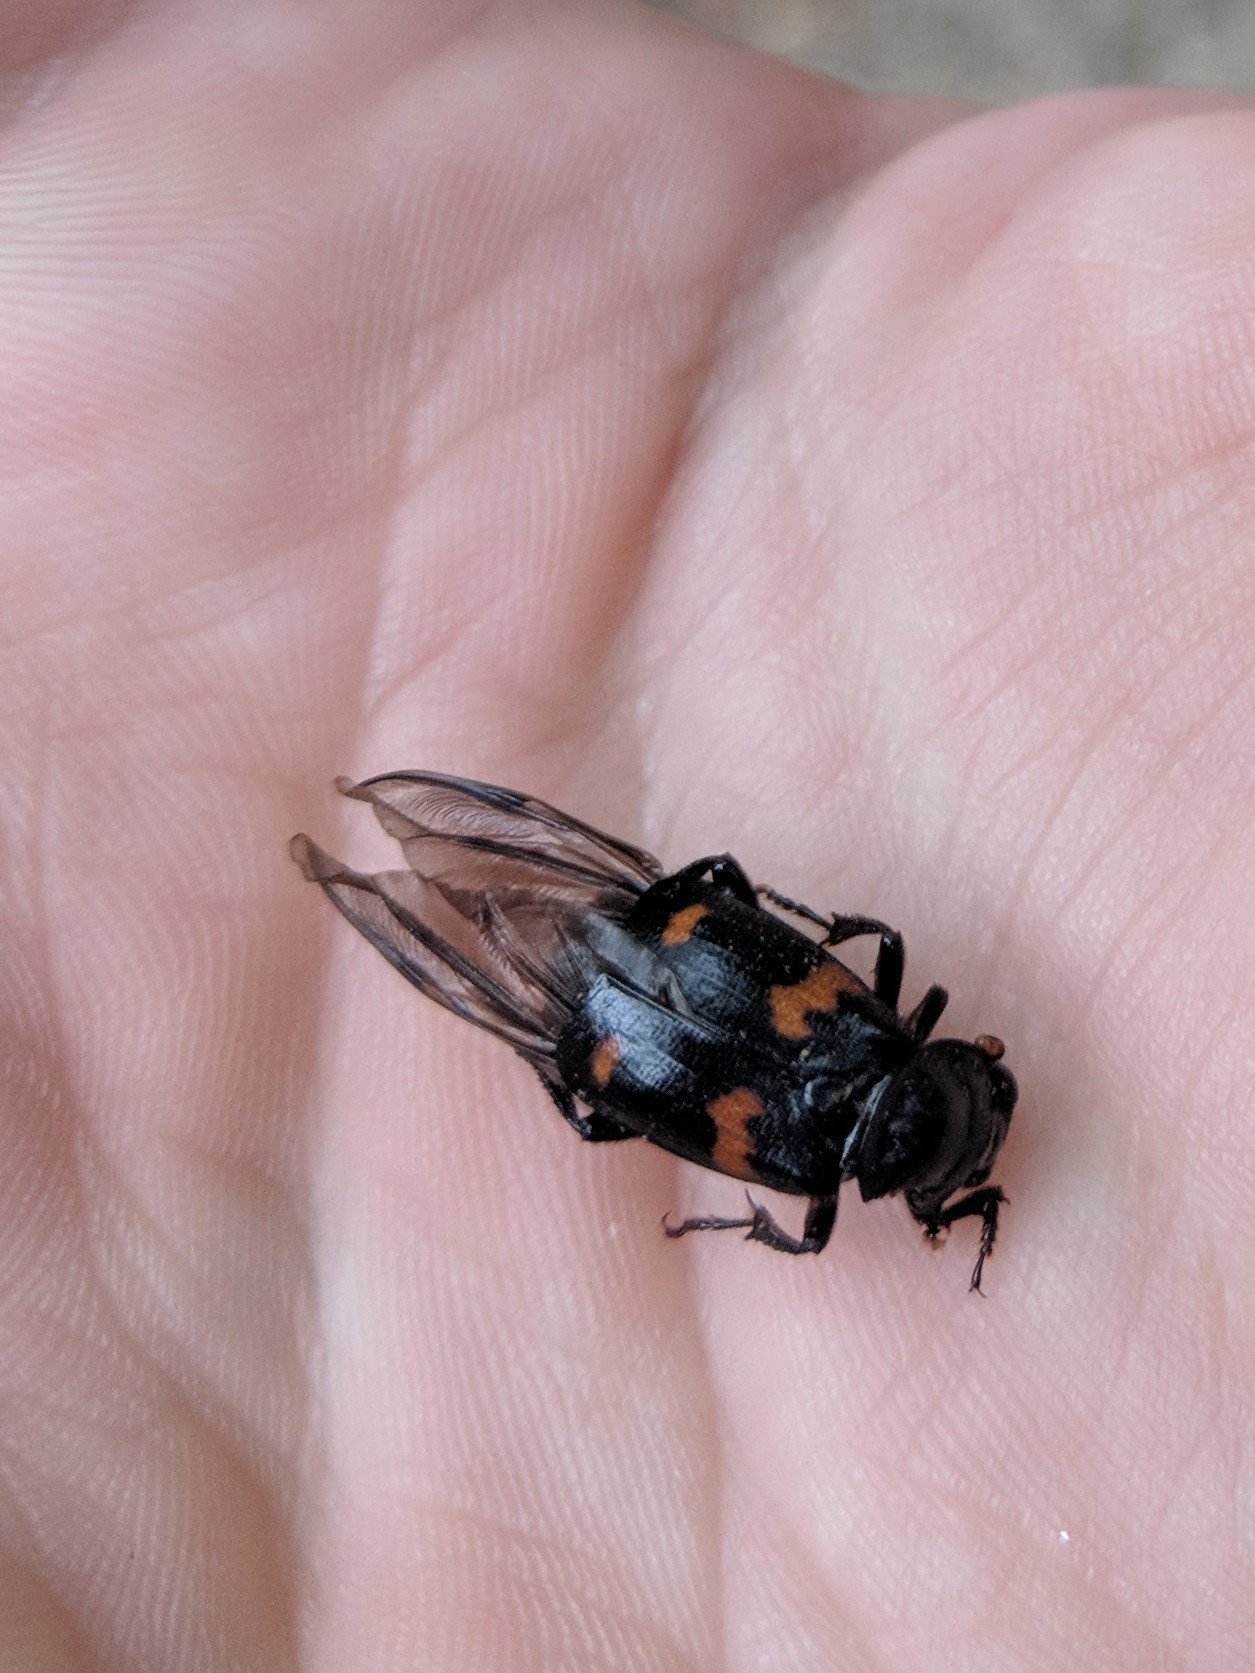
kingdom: Animalia
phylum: Arthropoda
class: Insecta
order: Coleoptera
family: Staphylinidae
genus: Nicrophorus
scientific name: Nicrophorus orbicollis
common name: Roundneck sexton beetle
